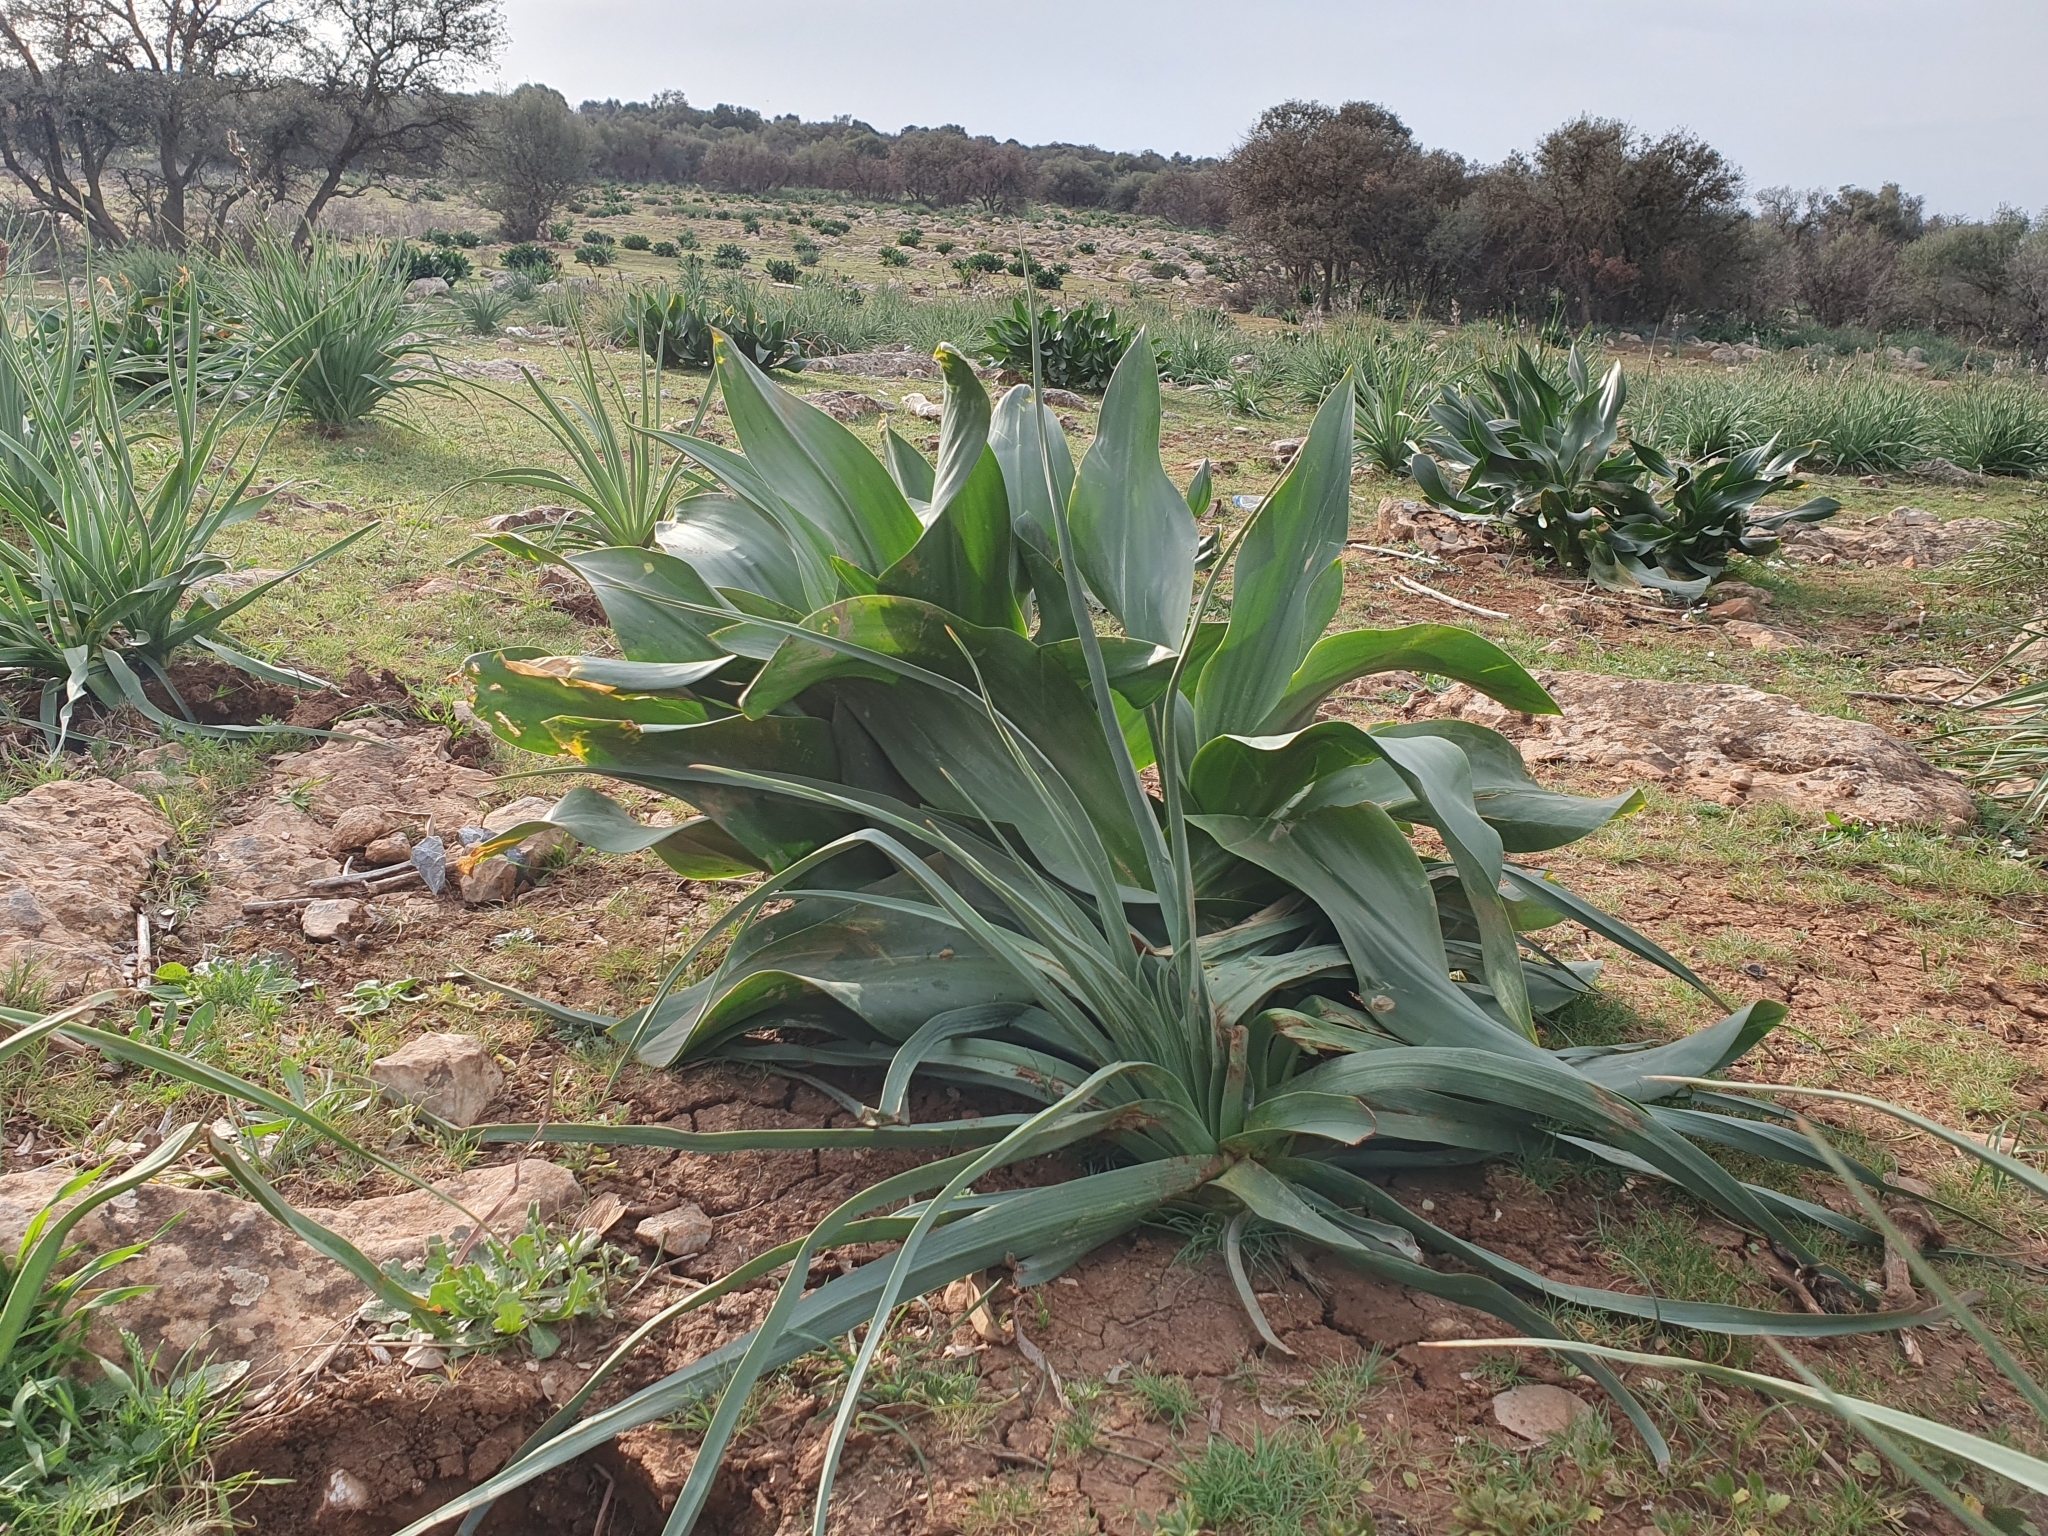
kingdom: Plantae
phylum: Tracheophyta
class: Liliopsida
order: Asparagales
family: Asparagaceae
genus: Drimia
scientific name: Drimia numidica
